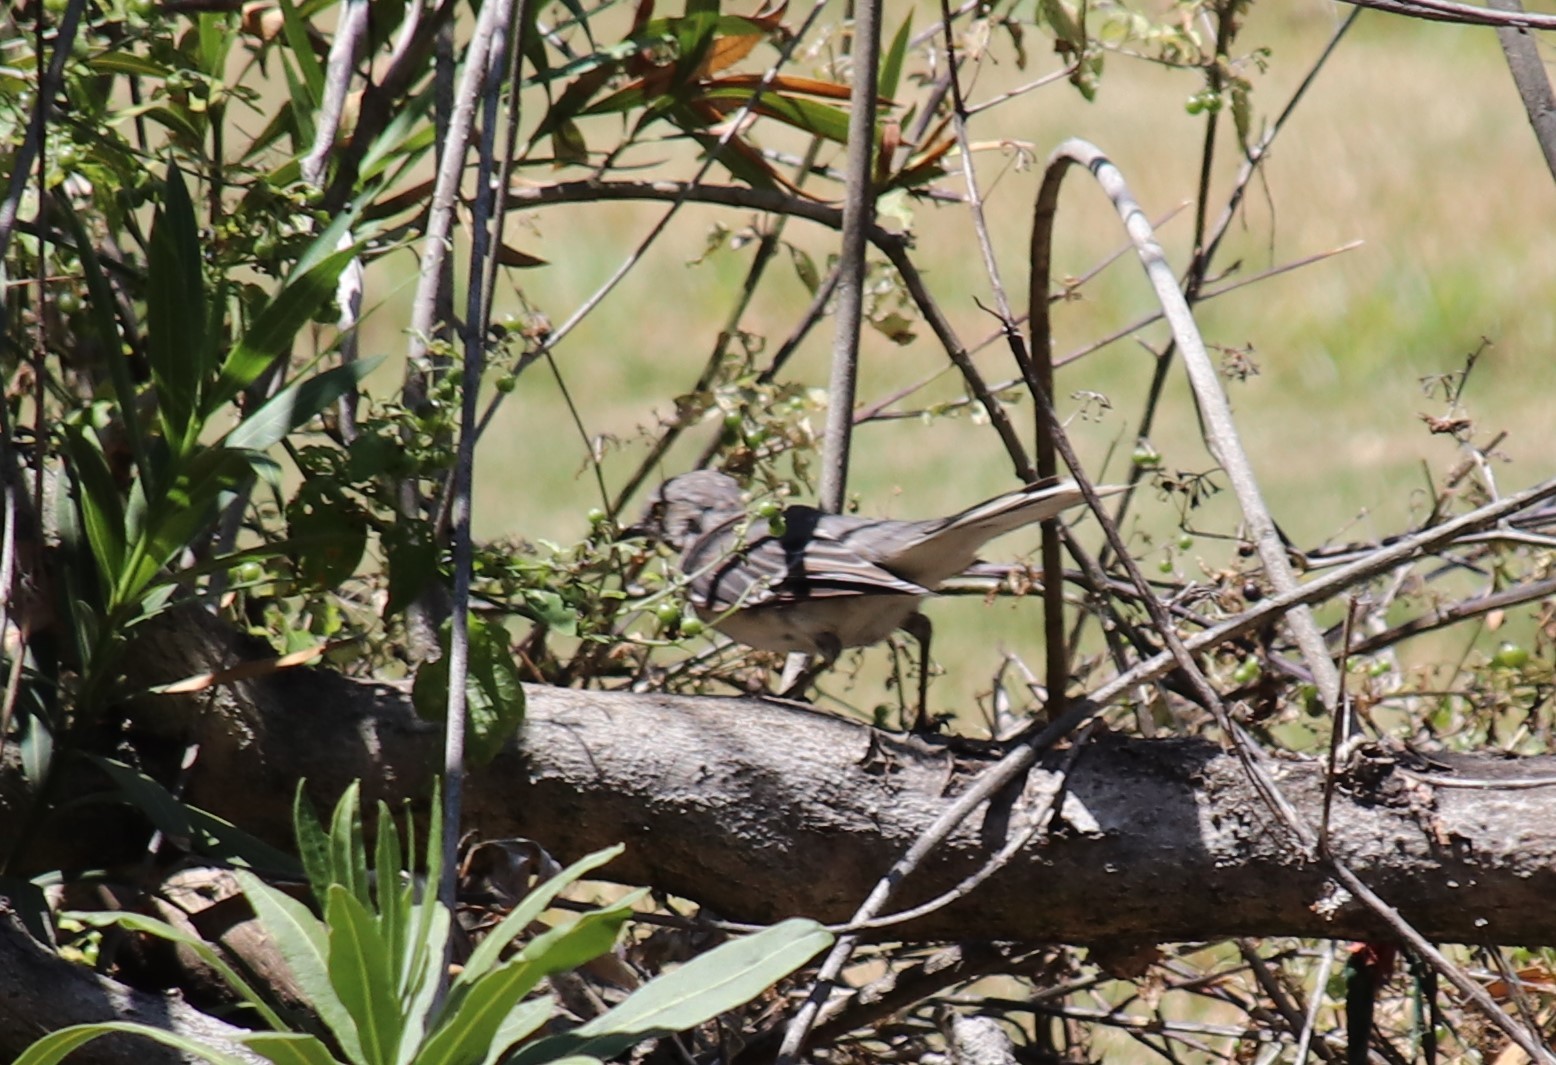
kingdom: Animalia
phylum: Chordata
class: Aves
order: Passeriformes
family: Mimidae
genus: Mimus
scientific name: Mimus polyglottos
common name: Northern mockingbird
